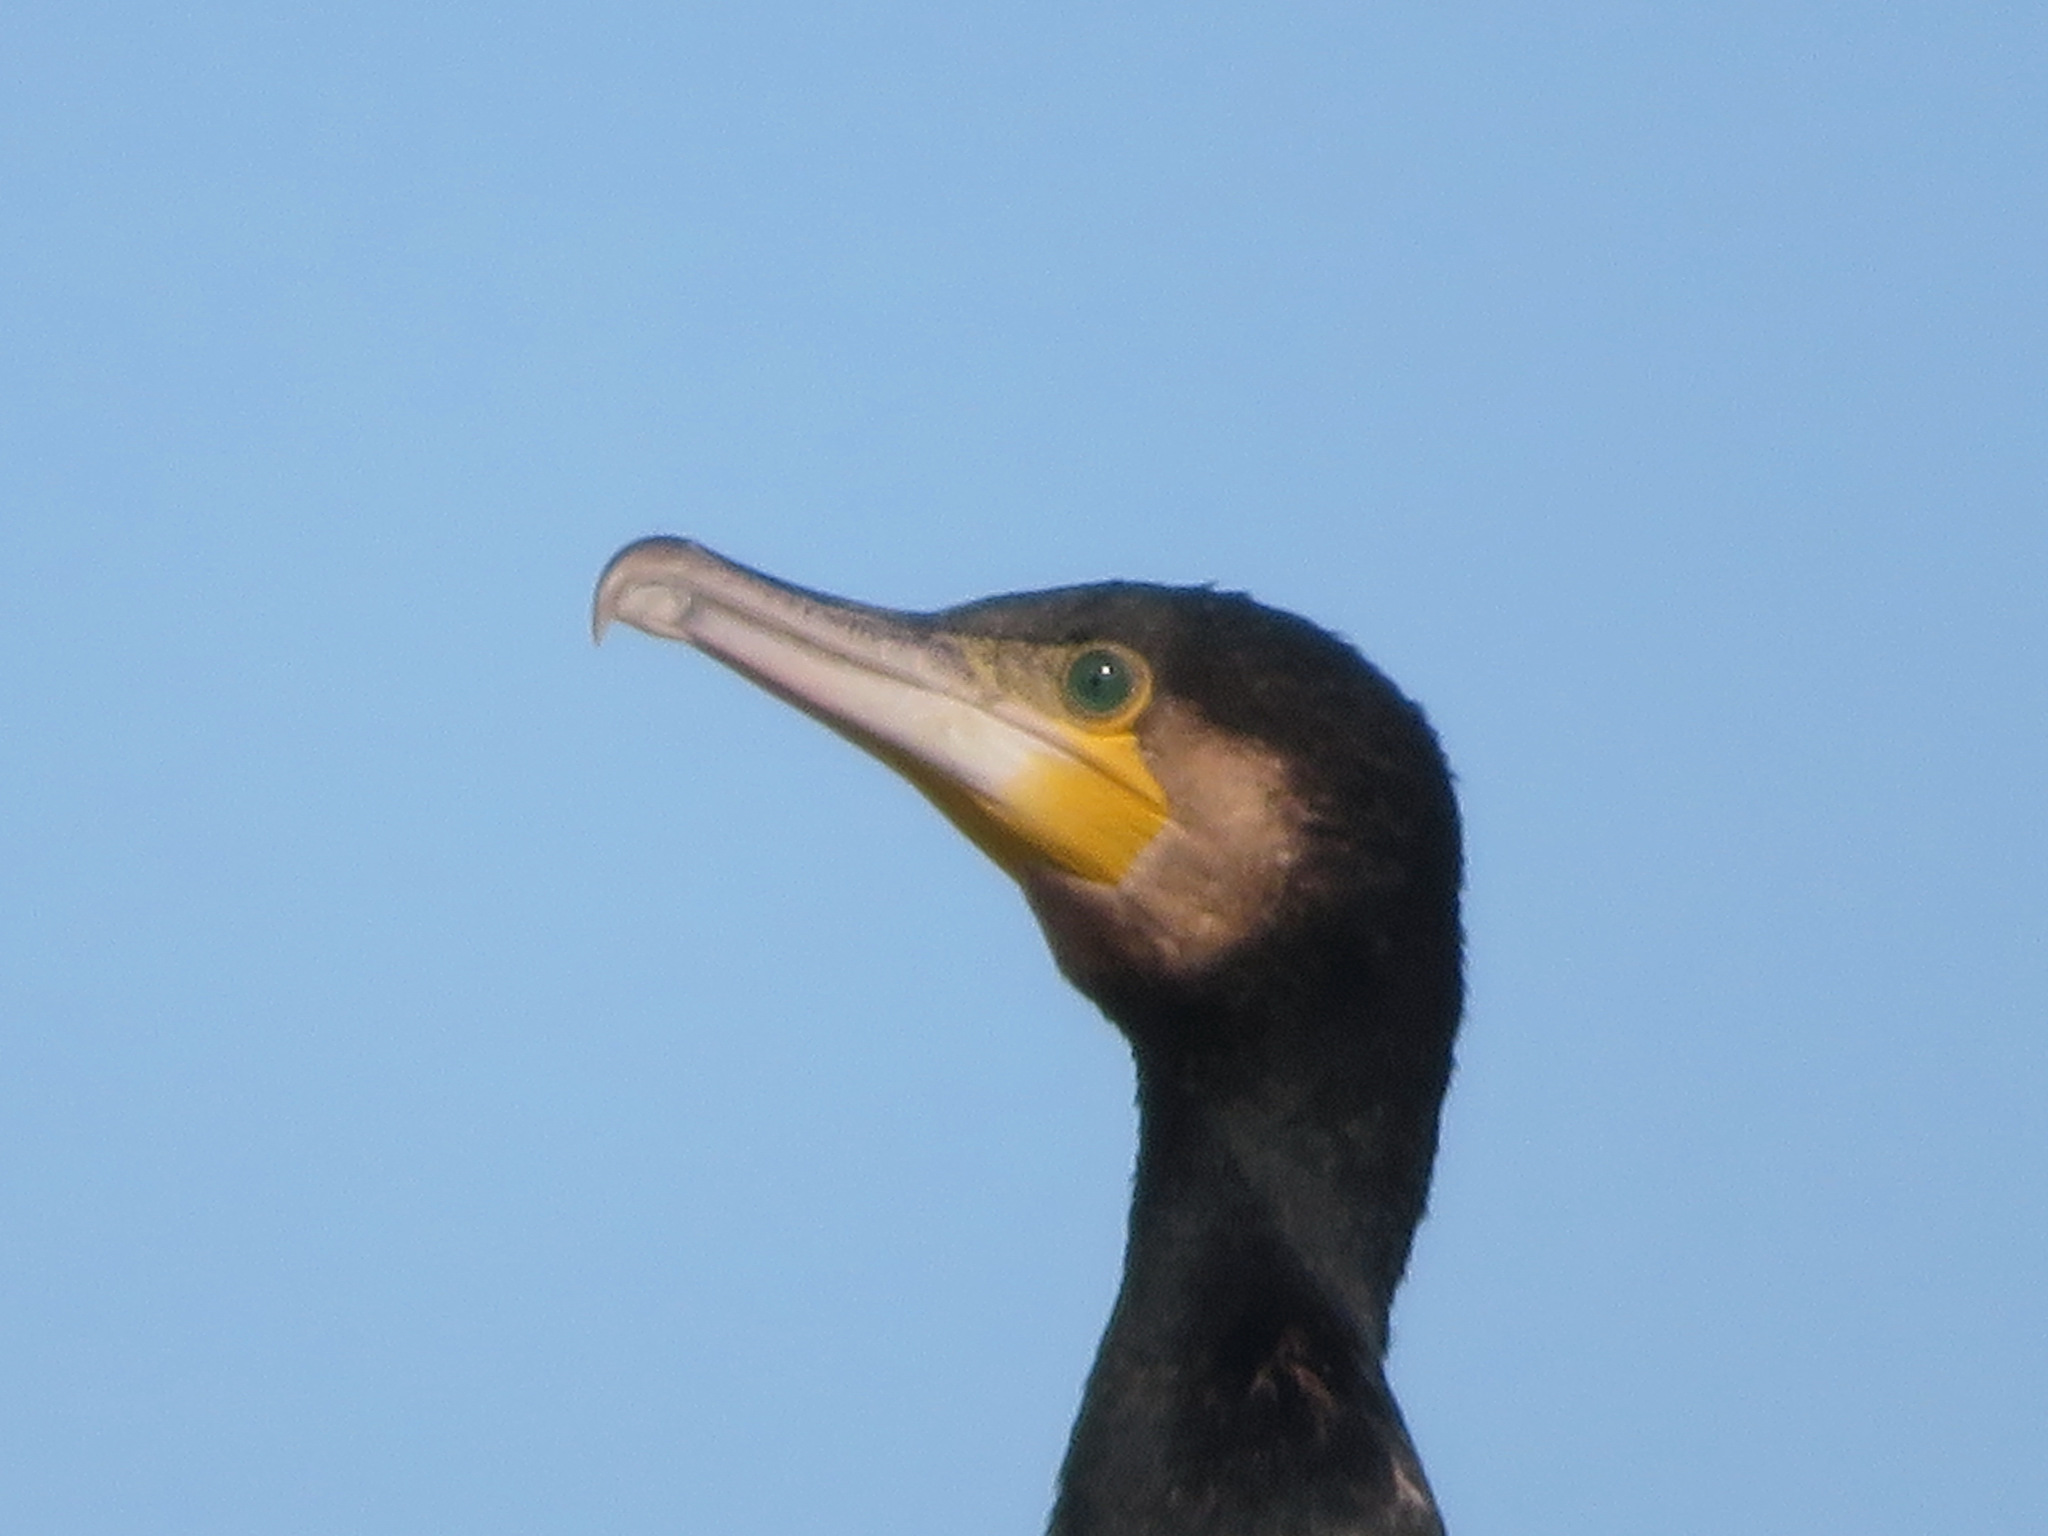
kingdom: Animalia
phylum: Chordata
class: Aves
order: Suliformes
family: Phalacrocoracidae
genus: Phalacrocorax
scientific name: Phalacrocorax carbo
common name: Great cormorant
